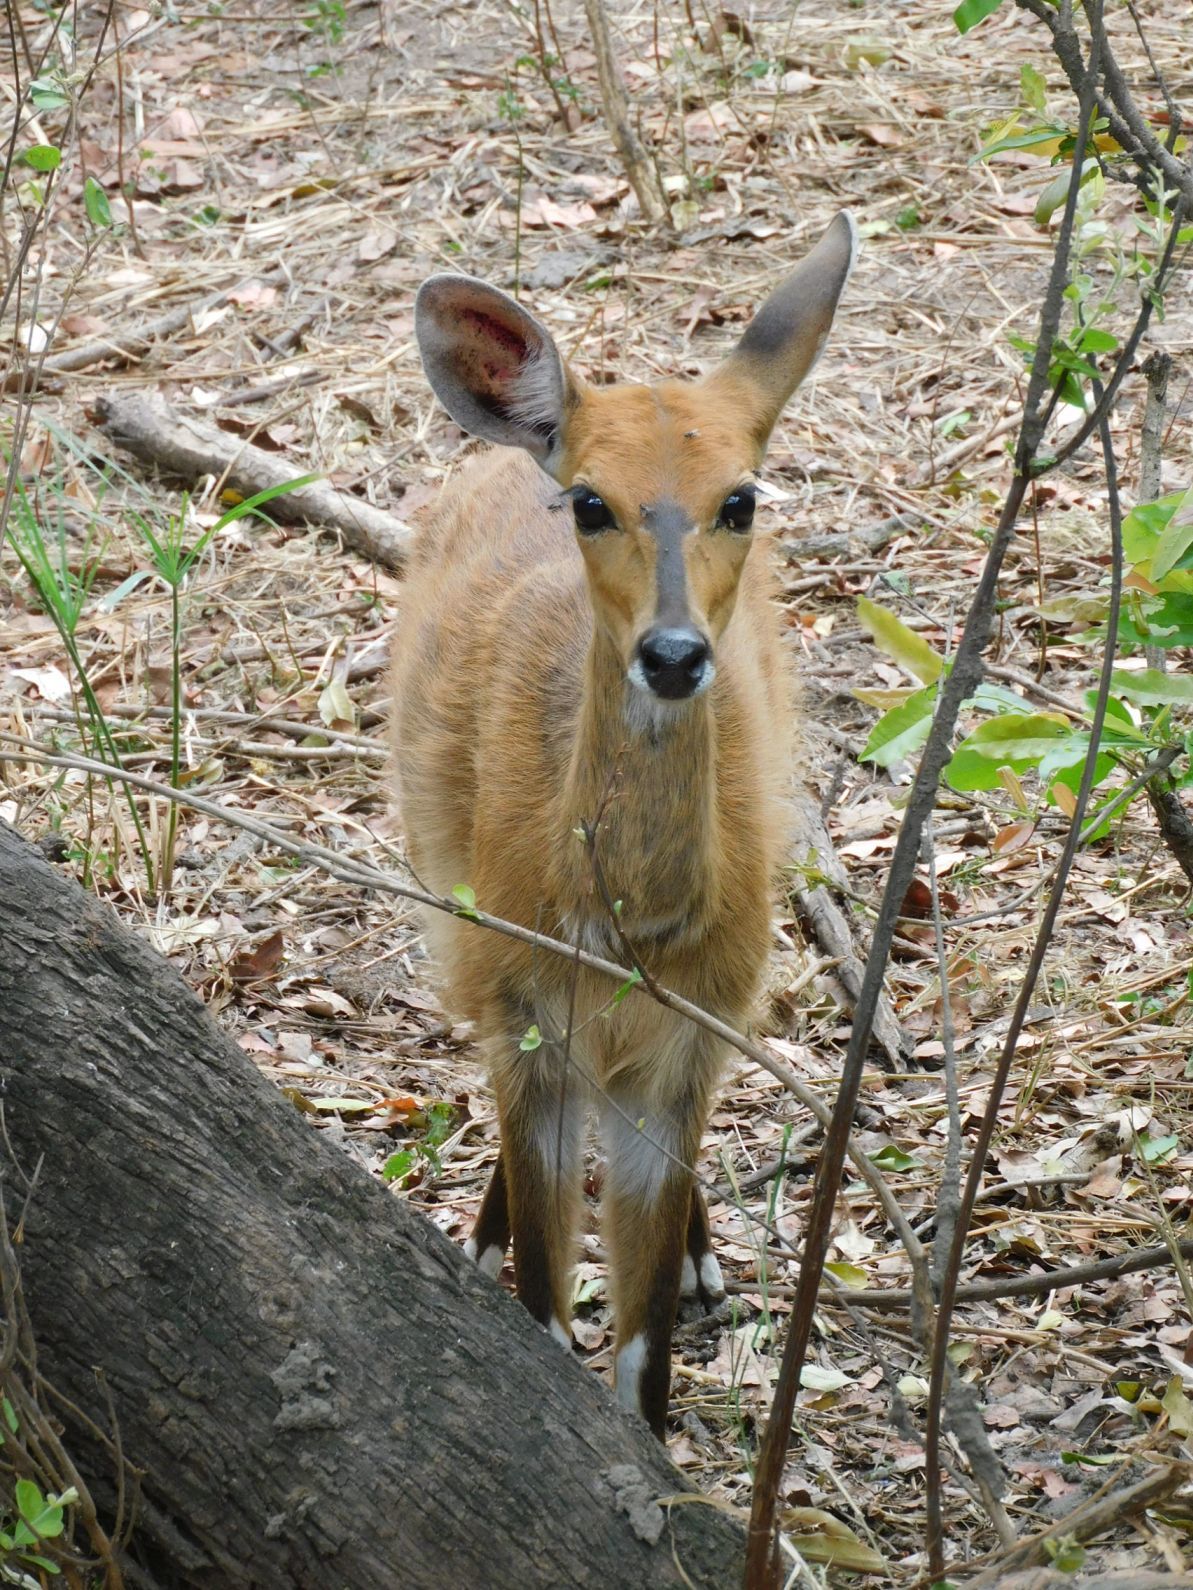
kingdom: Animalia
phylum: Chordata
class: Mammalia
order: Artiodactyla
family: Bovidae
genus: Tragelaphus
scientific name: Tragelaphus scriptus
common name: Bushbuck
